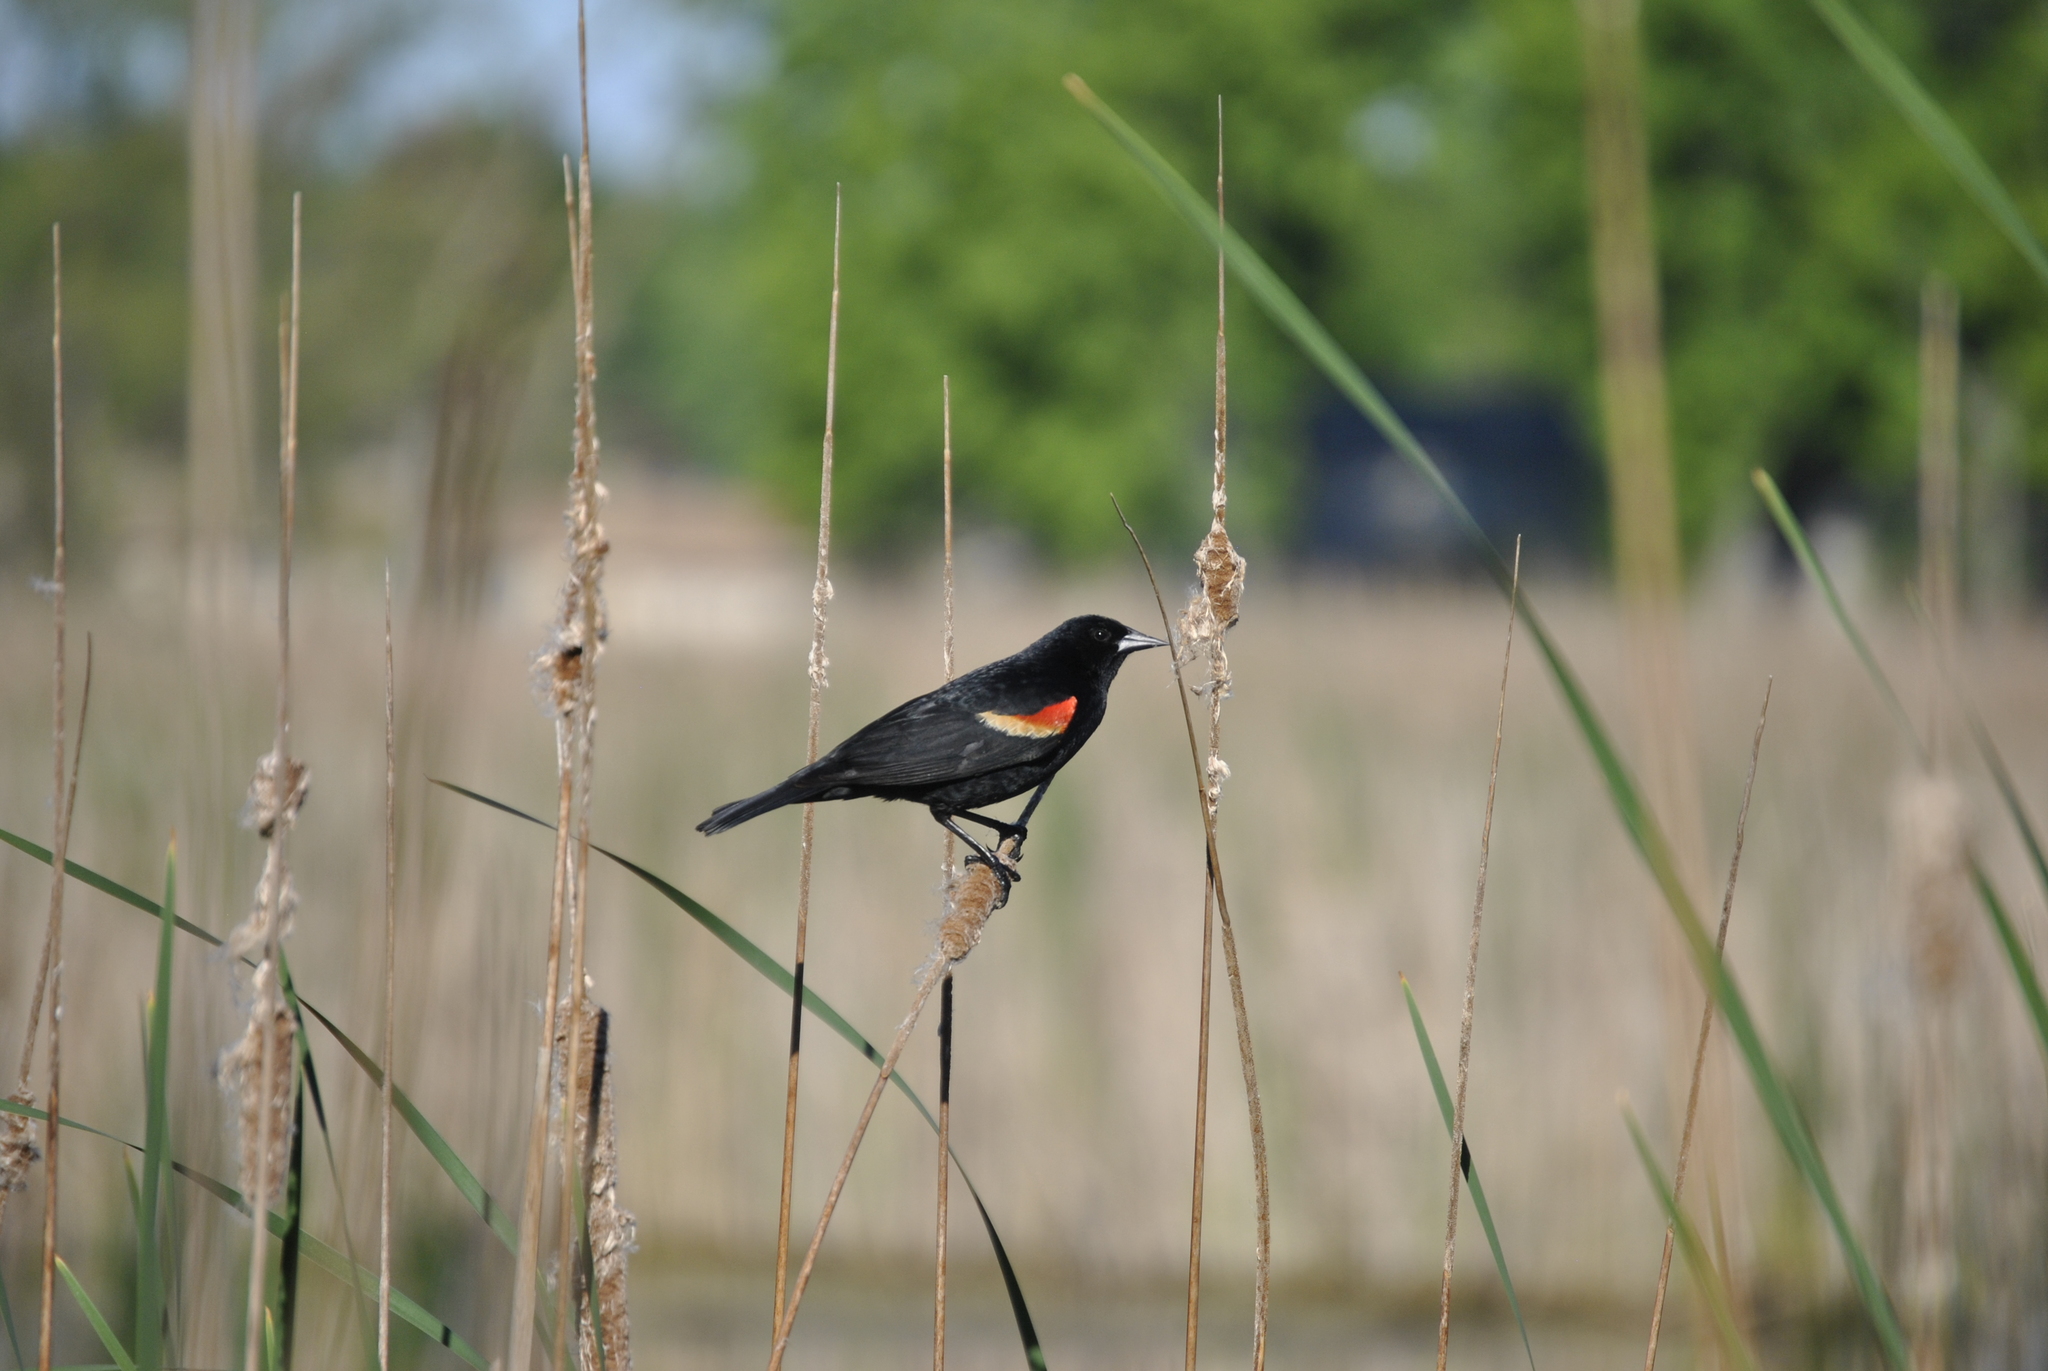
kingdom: Animalia
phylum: Chordata
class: Aves
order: Passeriformes
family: Icteridae
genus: Agelaius
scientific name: Agelaius phoeniceus
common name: Red-winged blackbird
